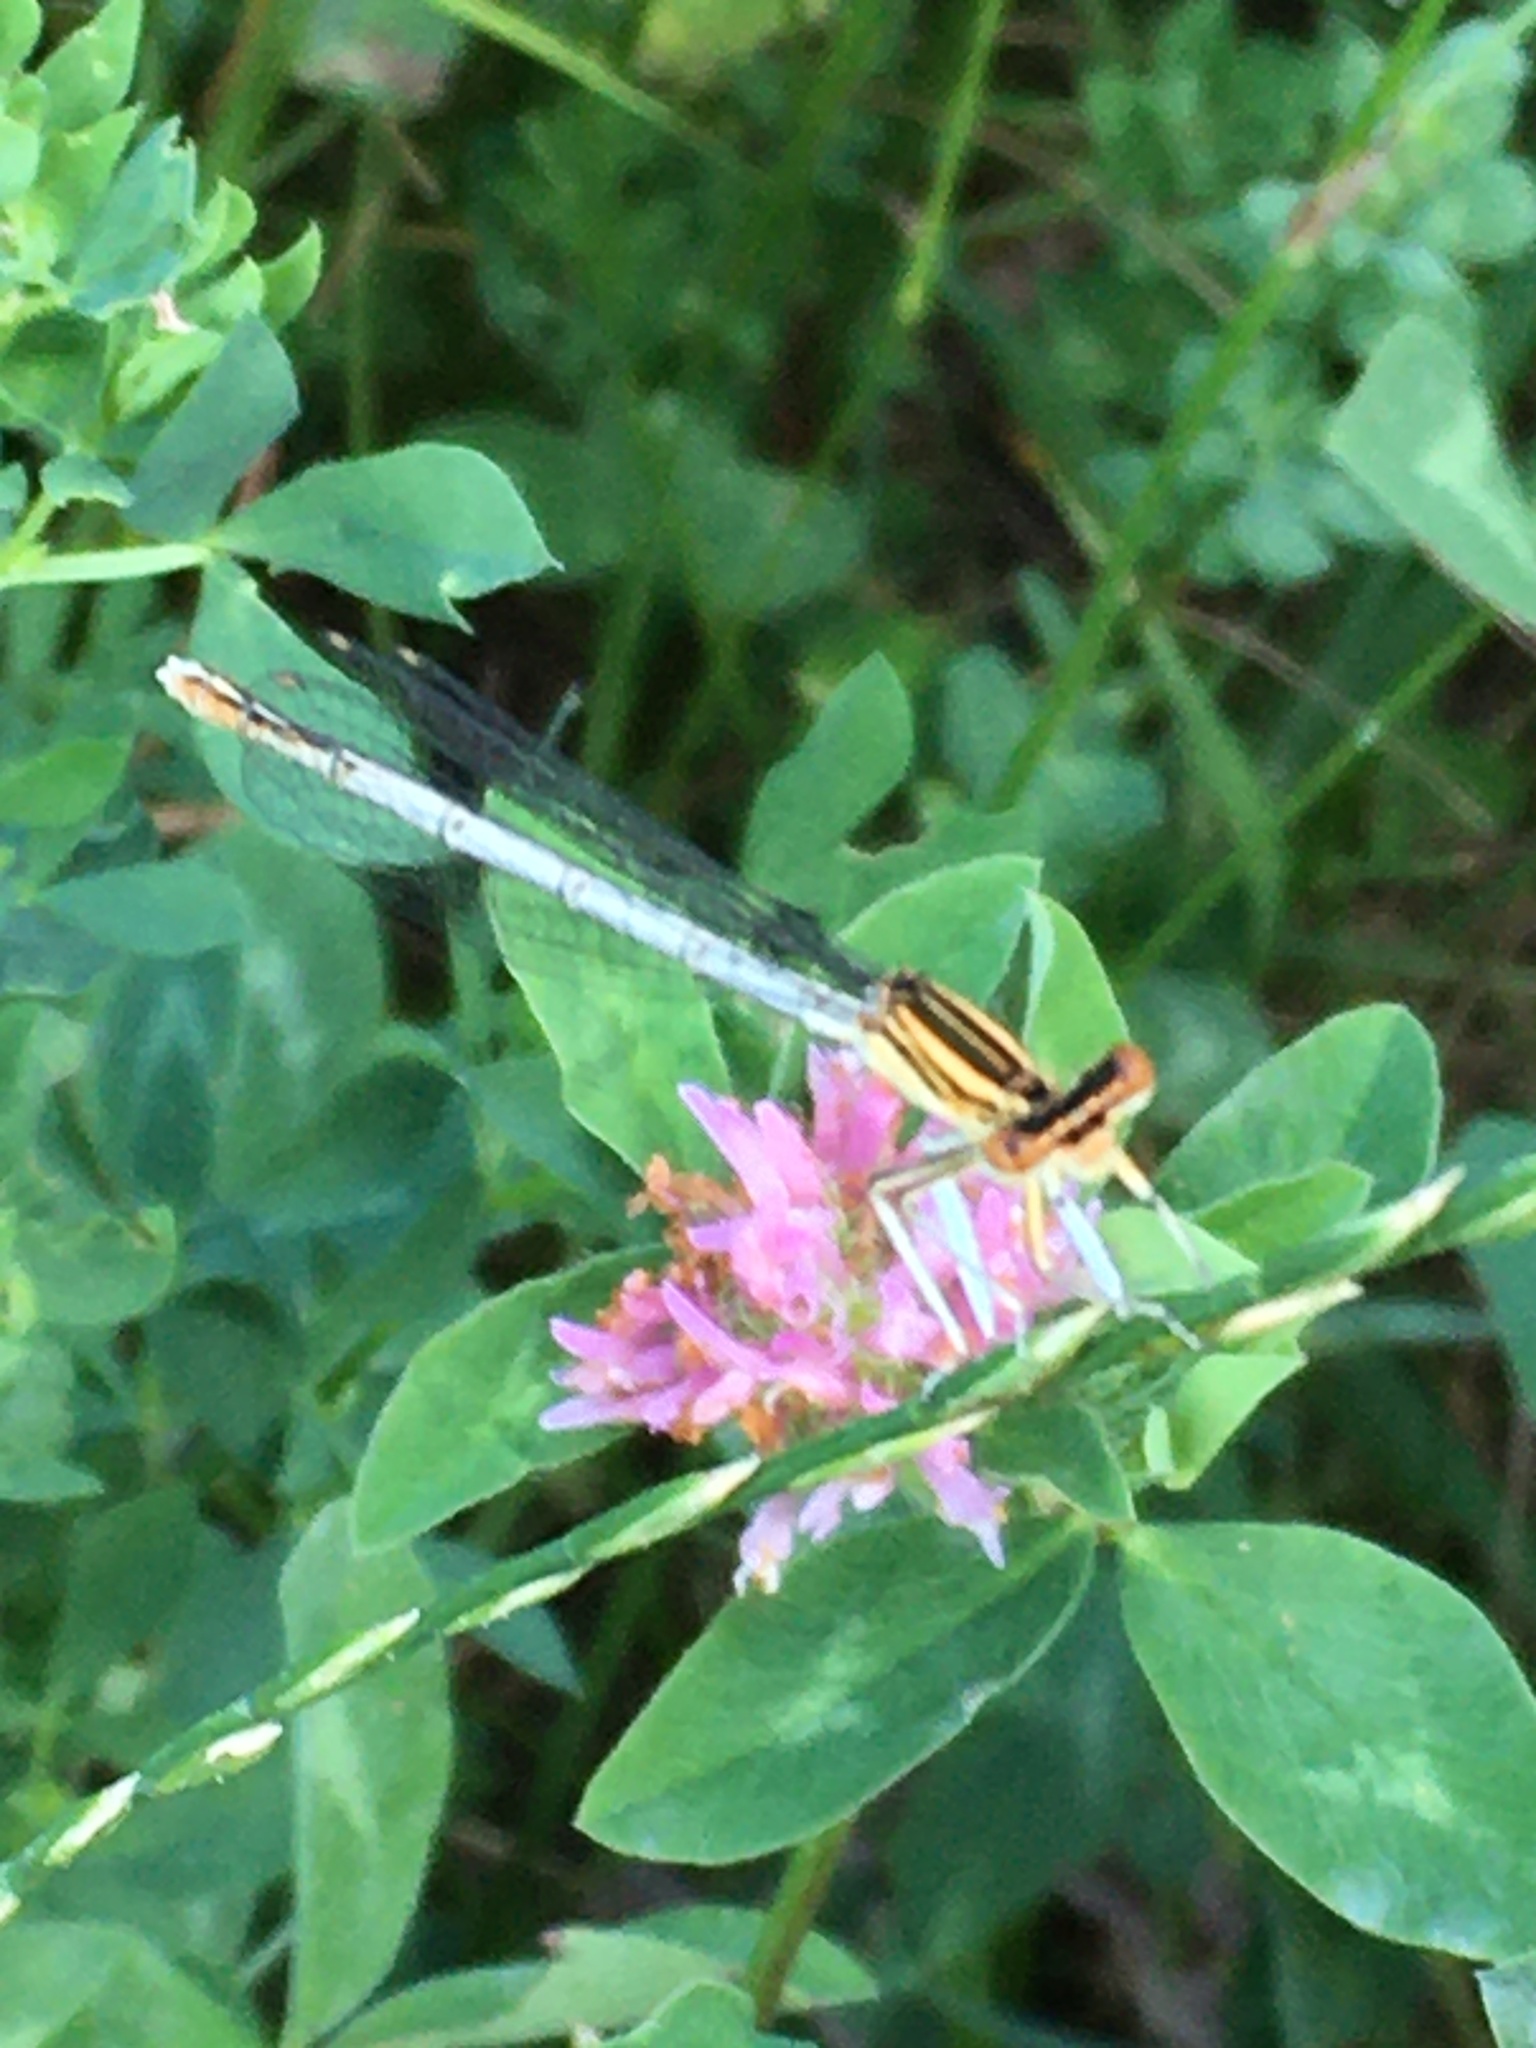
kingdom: Animalia
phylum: Arthropoda
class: Insecta
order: Odonata
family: Platycnemididae
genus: Platycnemis
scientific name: Platycnemis pennipes
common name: White-legged damselfly
